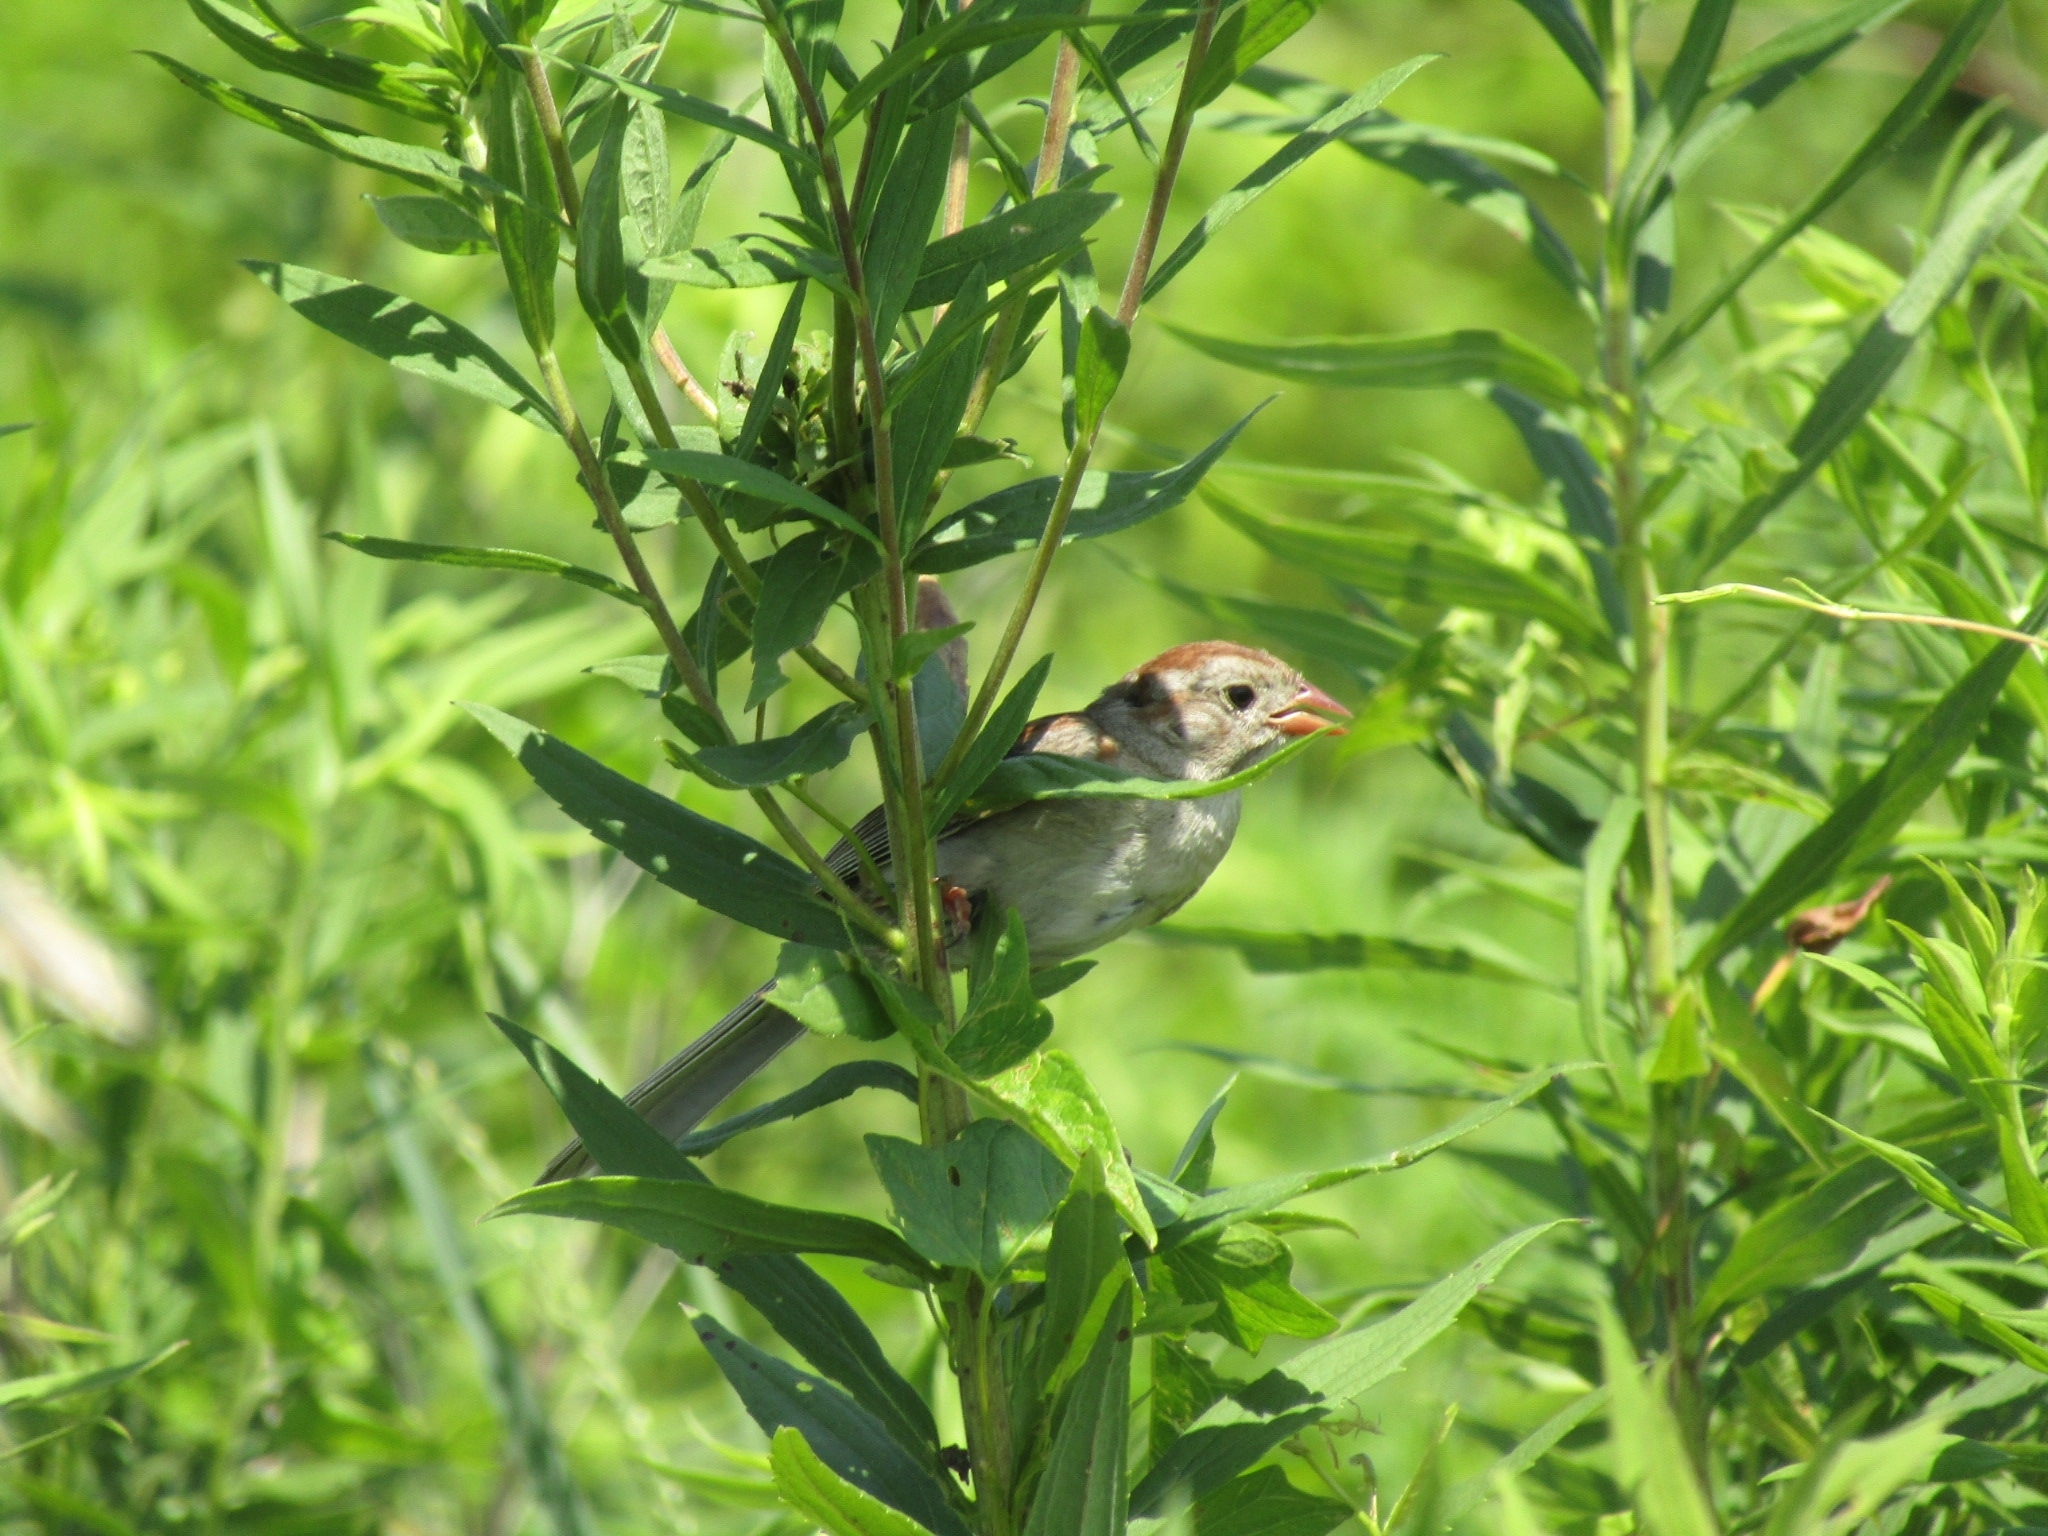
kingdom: Animalia
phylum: Chordata
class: Aves
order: Passeriformes
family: Passerellidae
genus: Spizella
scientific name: Spizella pusilla
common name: Field sparrow
